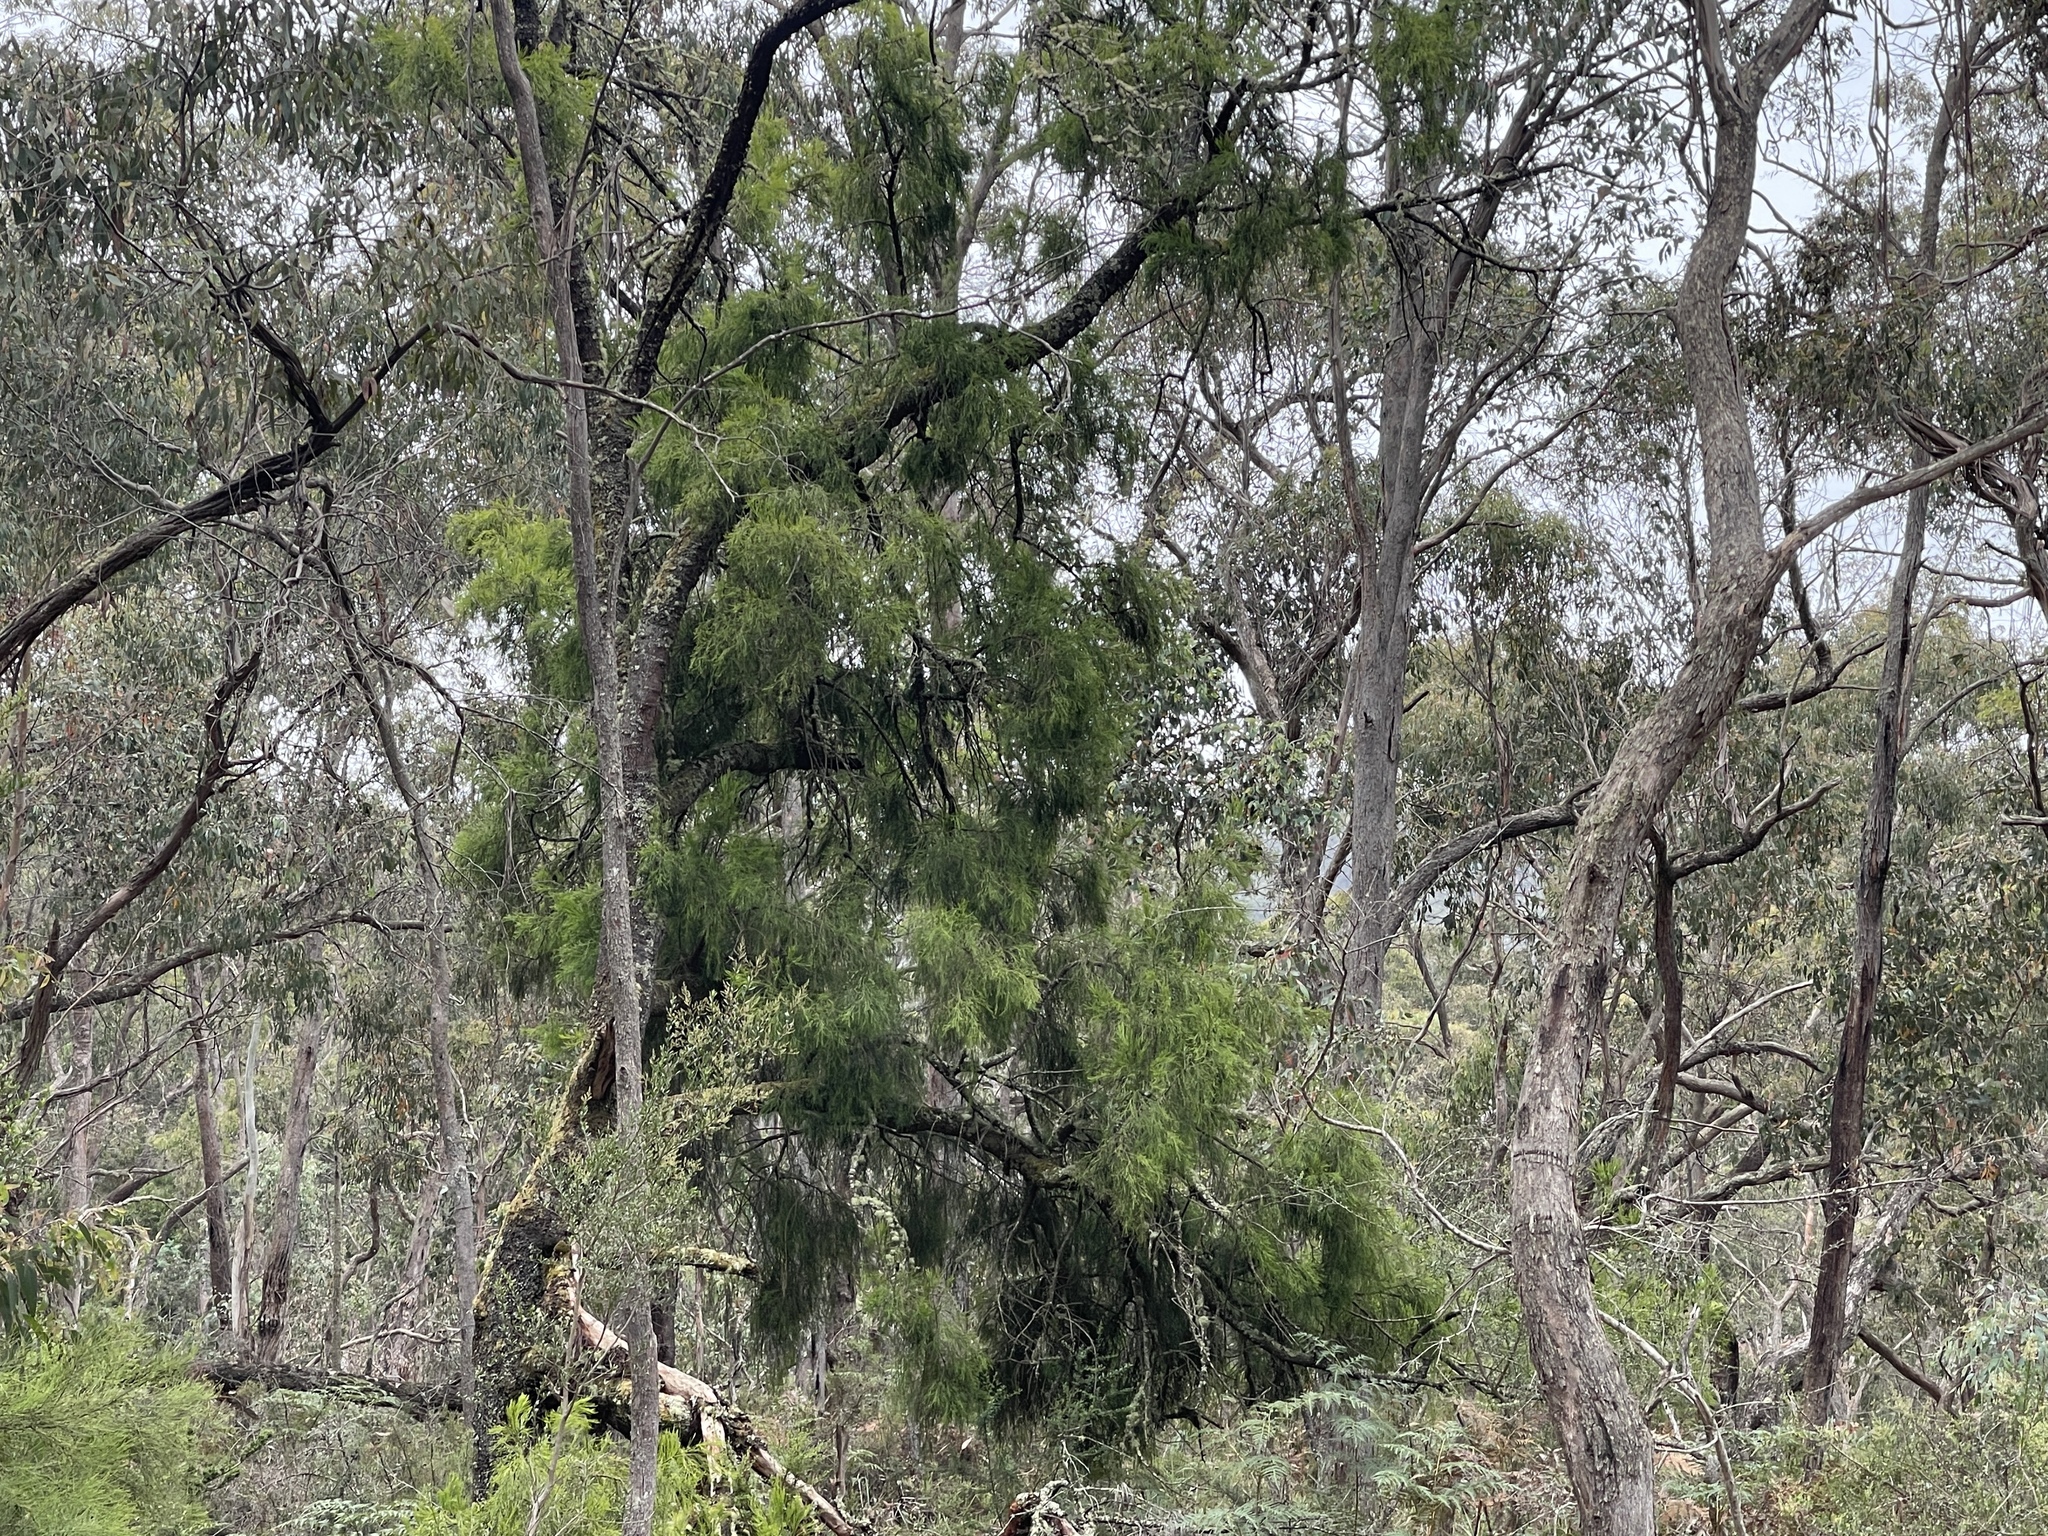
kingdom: Plantae
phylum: Tracheophyta
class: Magnoliopsida
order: Santalales
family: Santalaceae
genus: Exocarpos
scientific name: Exocarpos cupressiformis
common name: Cherry ballart
